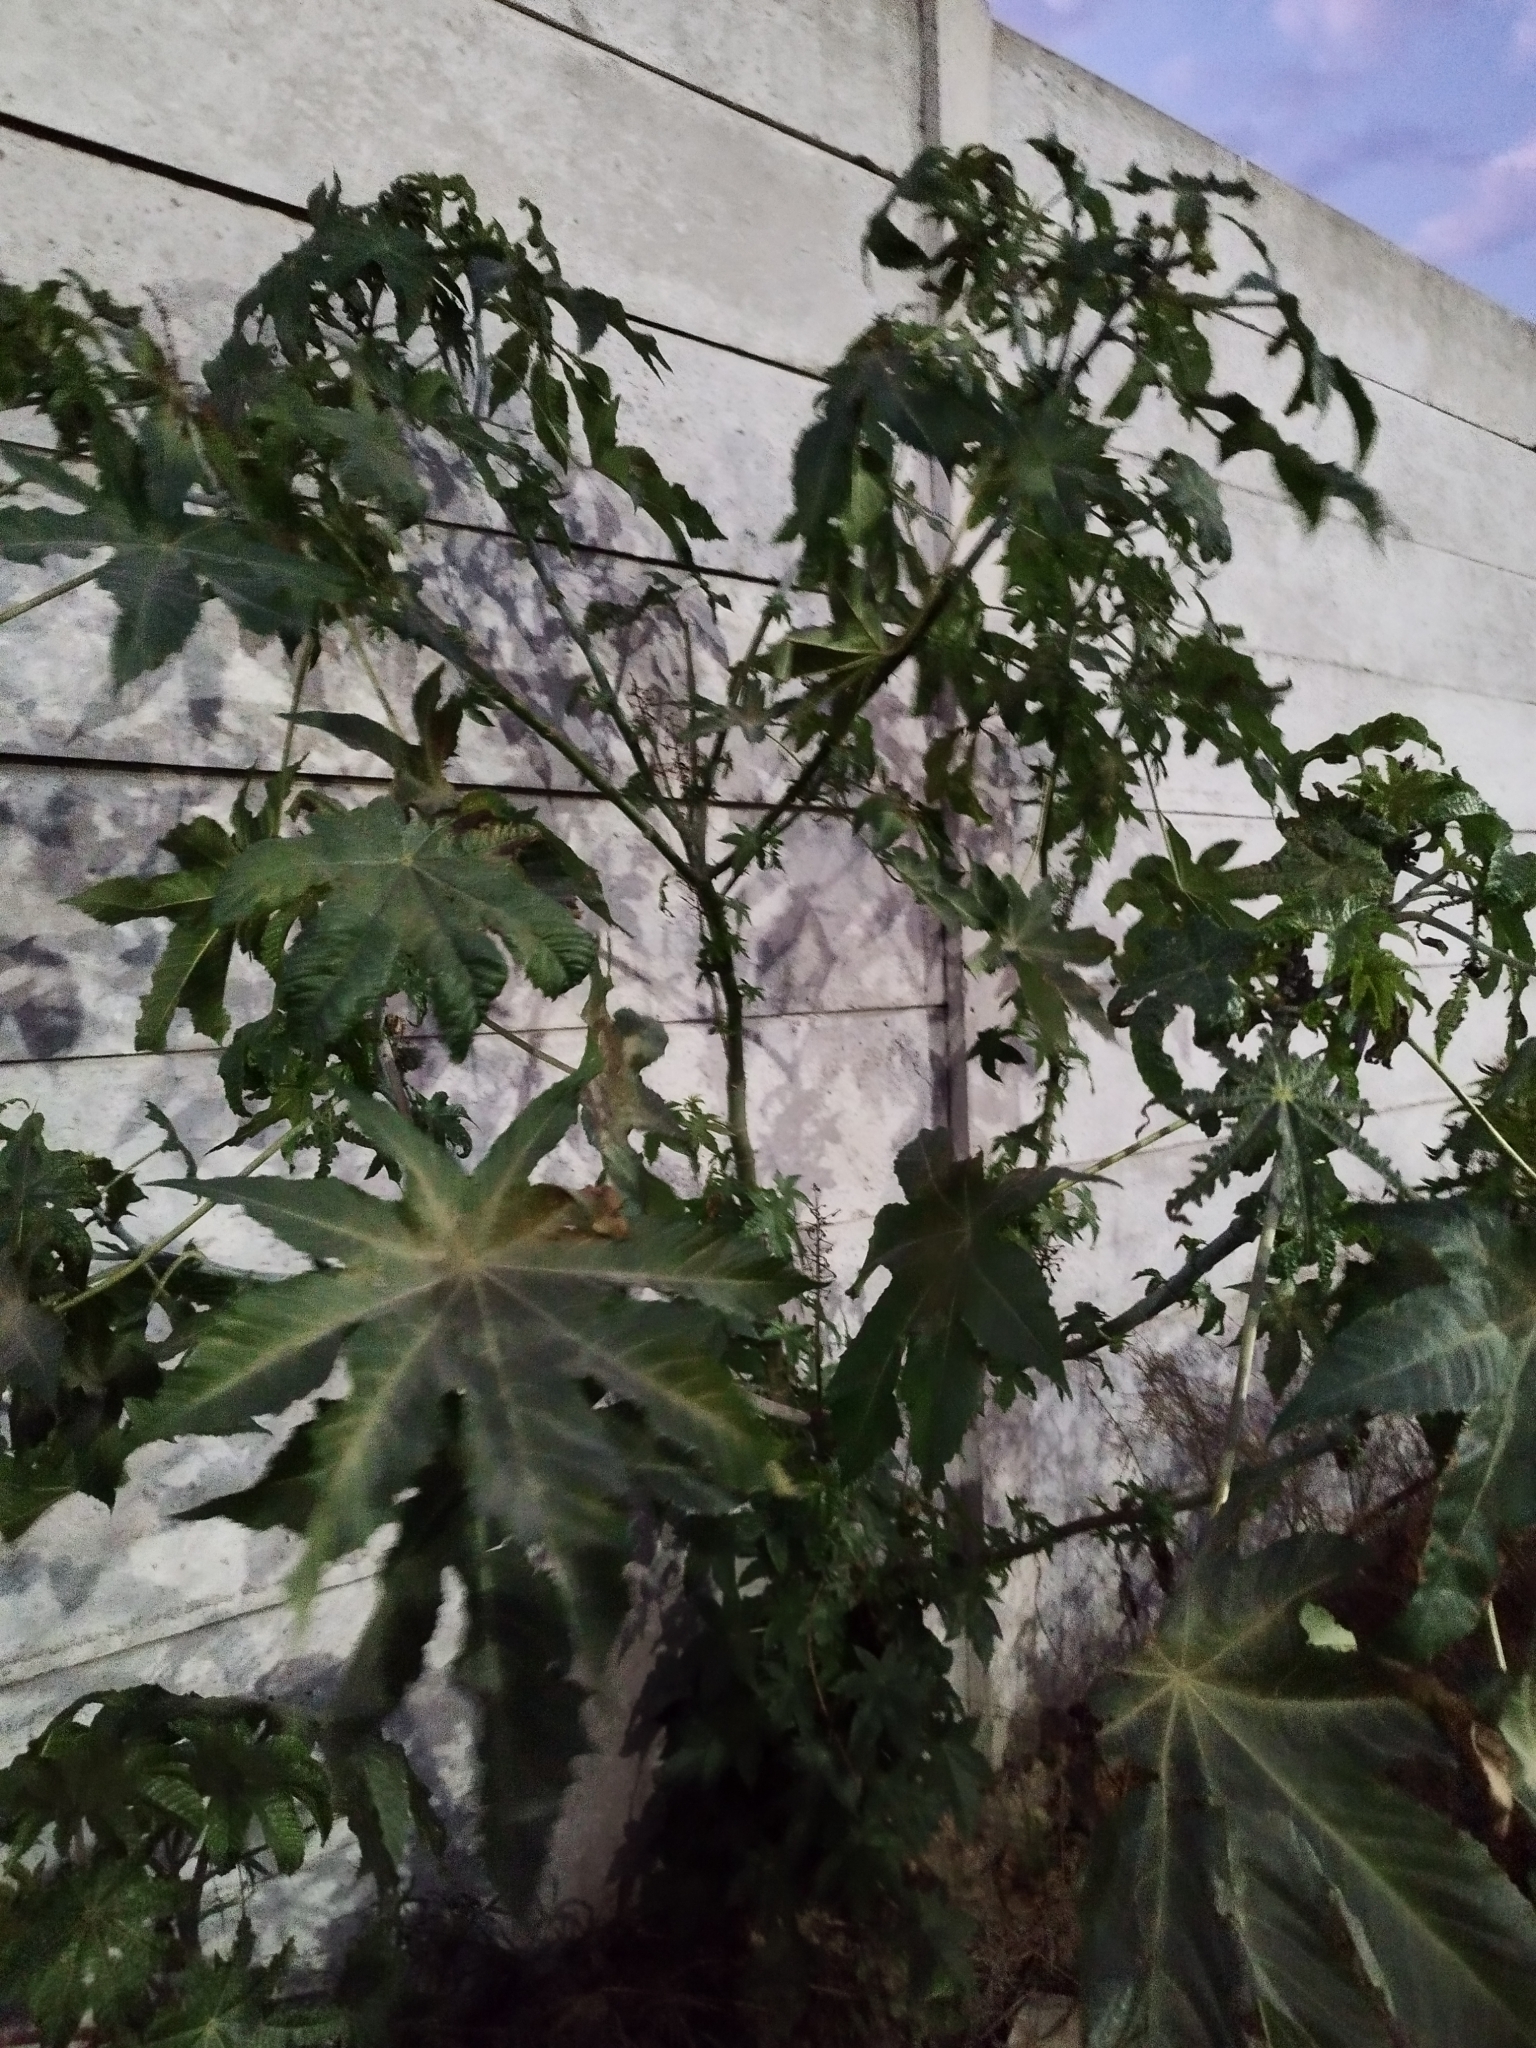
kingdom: Plantae
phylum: Tracheophyta
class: Magnoliopsida
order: Malpighiales
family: Euphorbiaceae
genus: Ricinus
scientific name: Ricinus communis
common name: Castor-oil-plant
